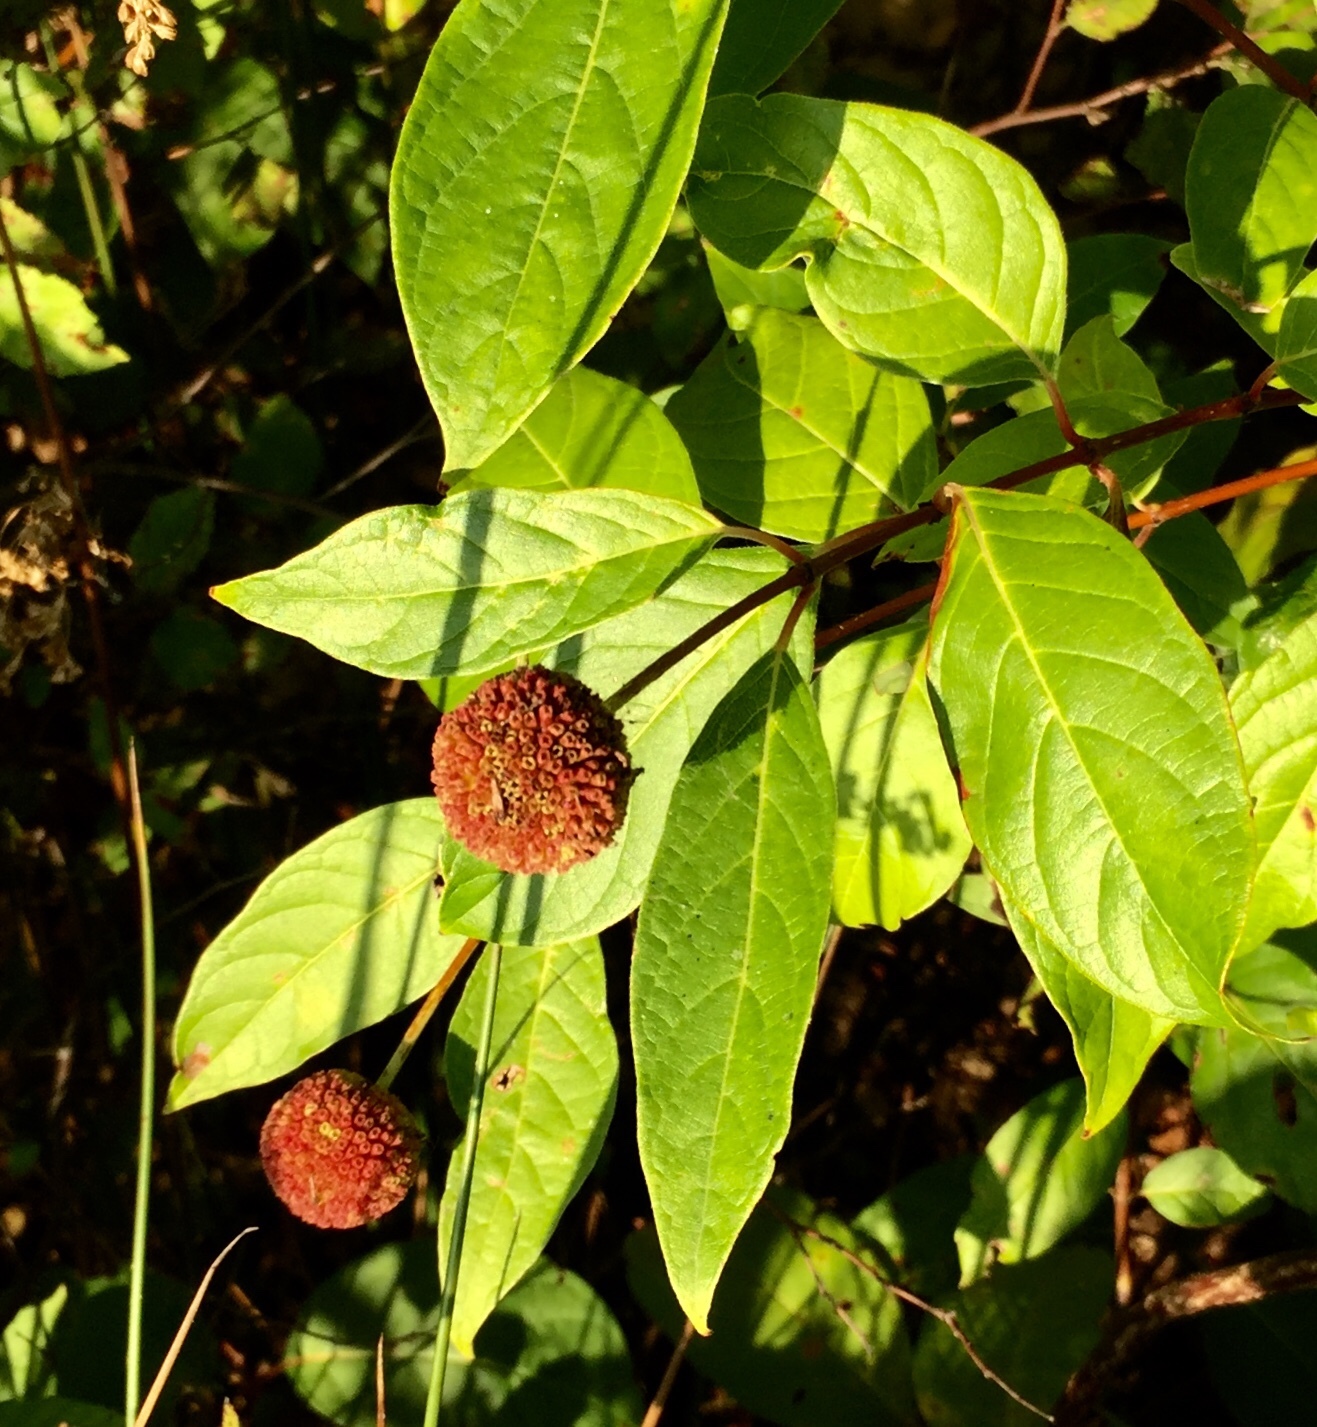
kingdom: Plantae
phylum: Tracheophyta
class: Magnoliopsida
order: Gentianales
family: Rubiaceae
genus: Cephalanthus
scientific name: Cephalanthus occidentalis
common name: Button-willow
